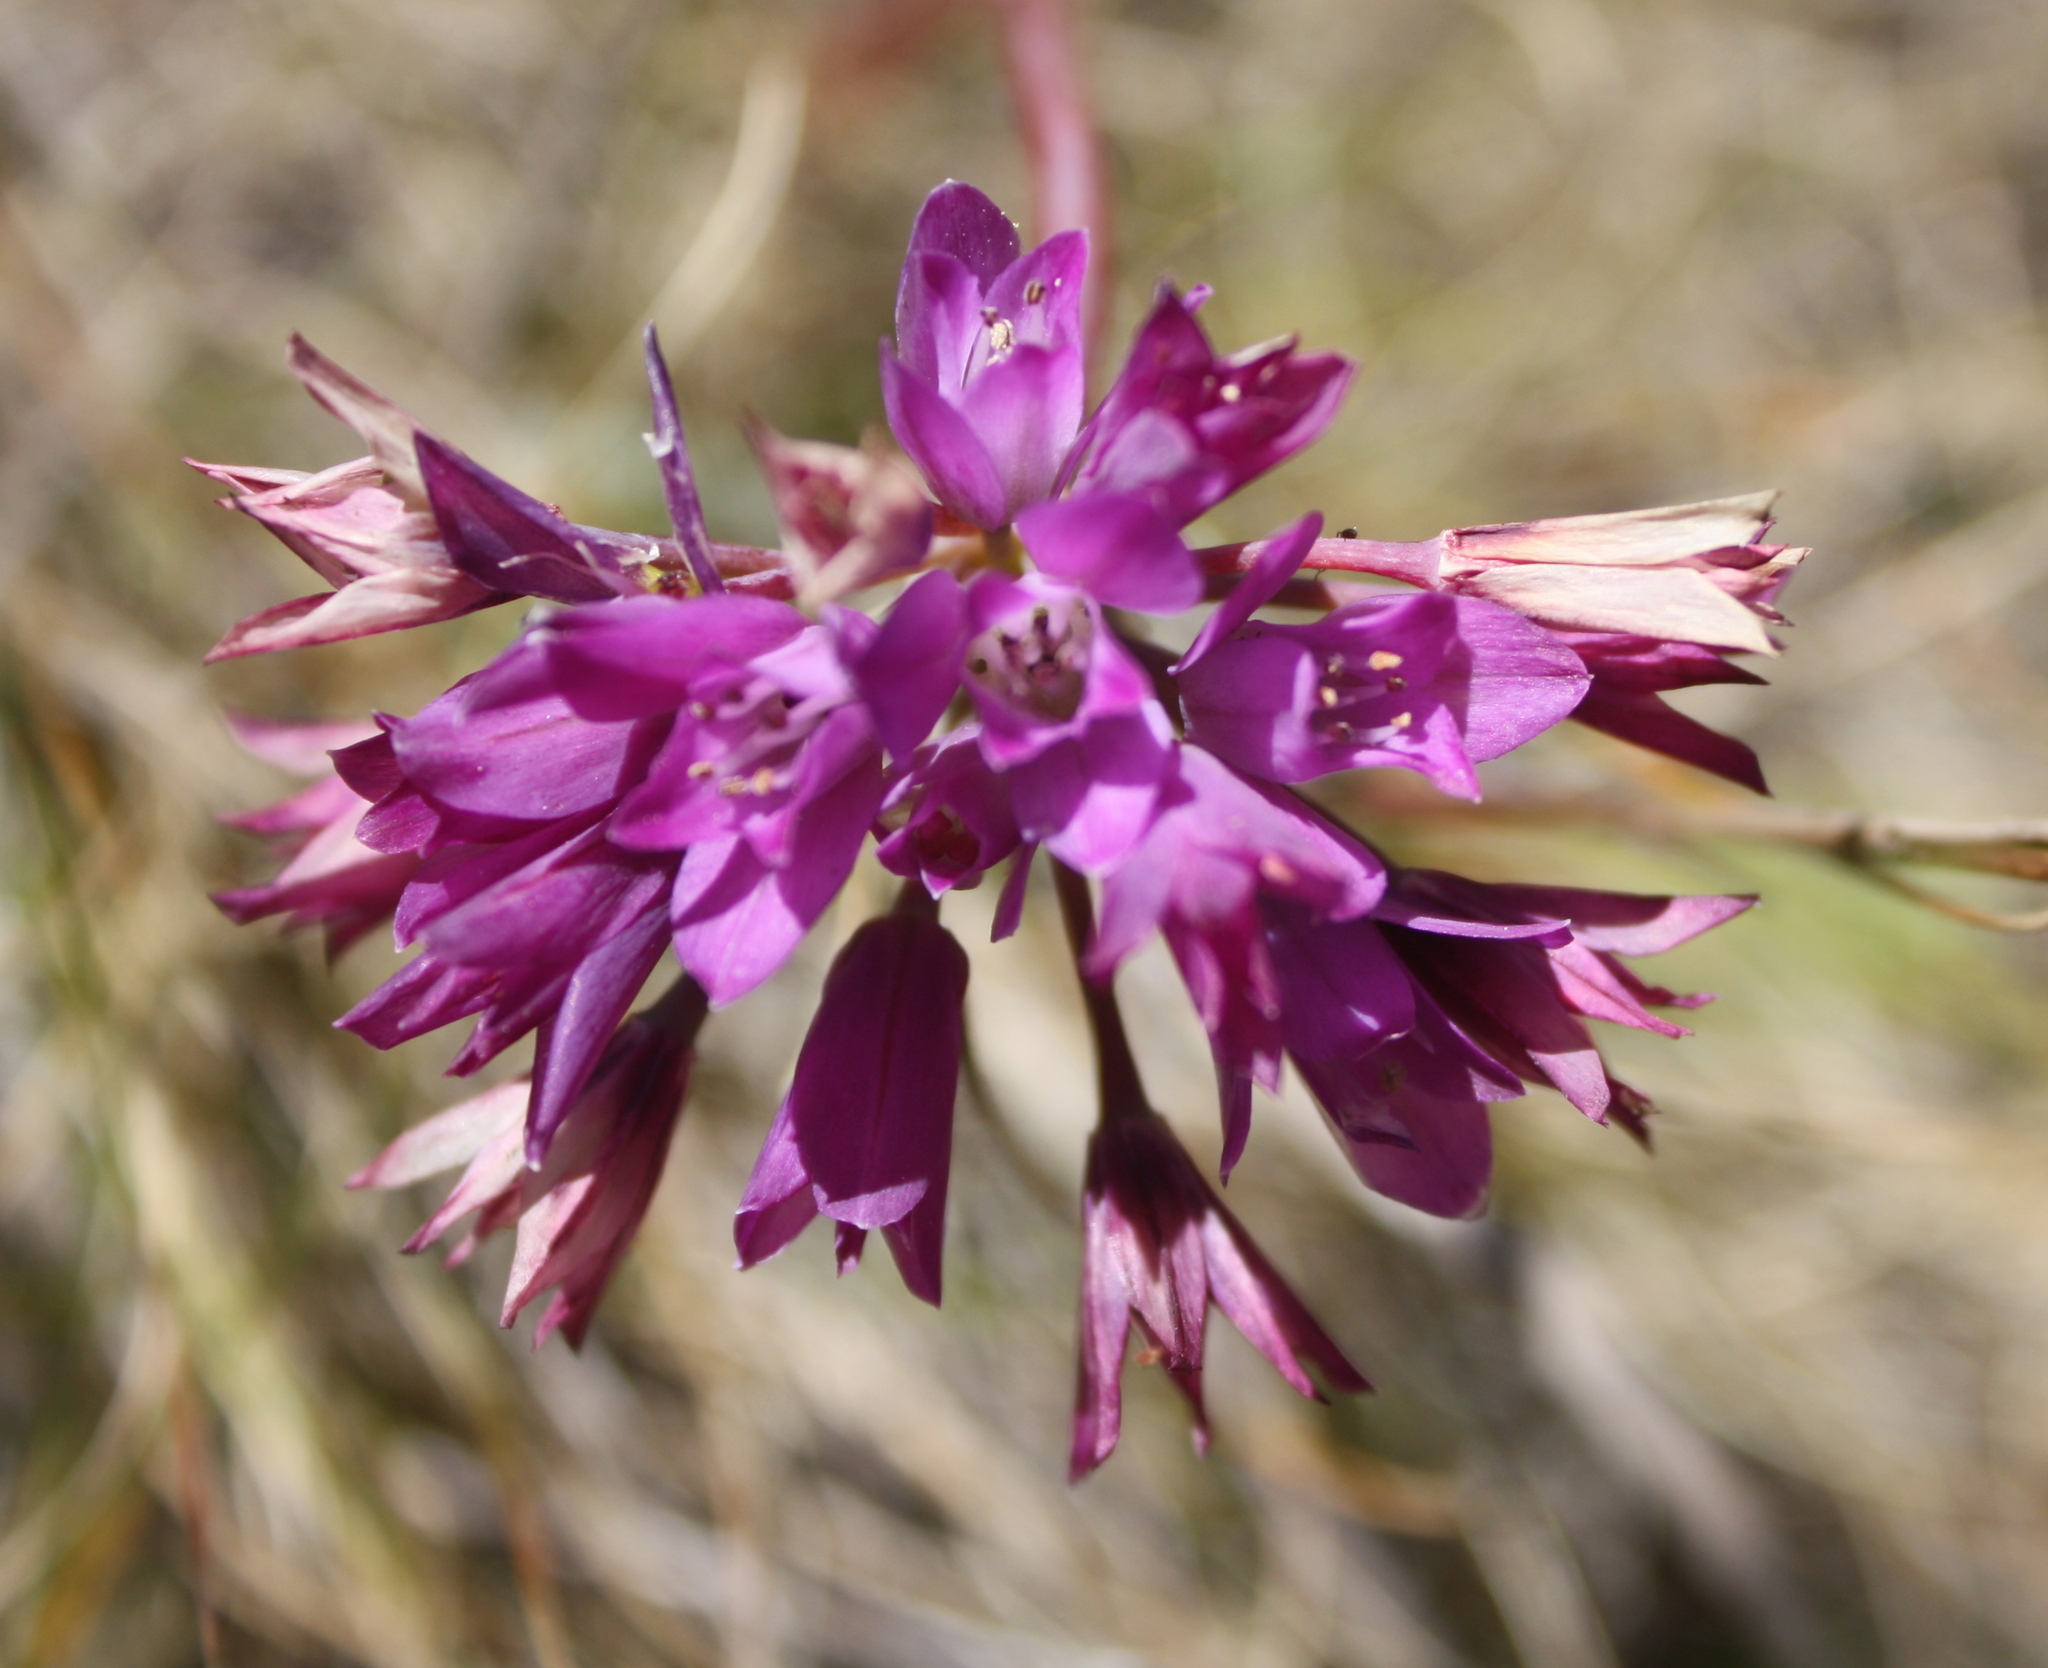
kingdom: Plantae
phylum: Tracheophyta
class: Liliopsida
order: Asparagales
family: Amaryllidaceae
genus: Allium
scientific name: Allium dichlamydeum
